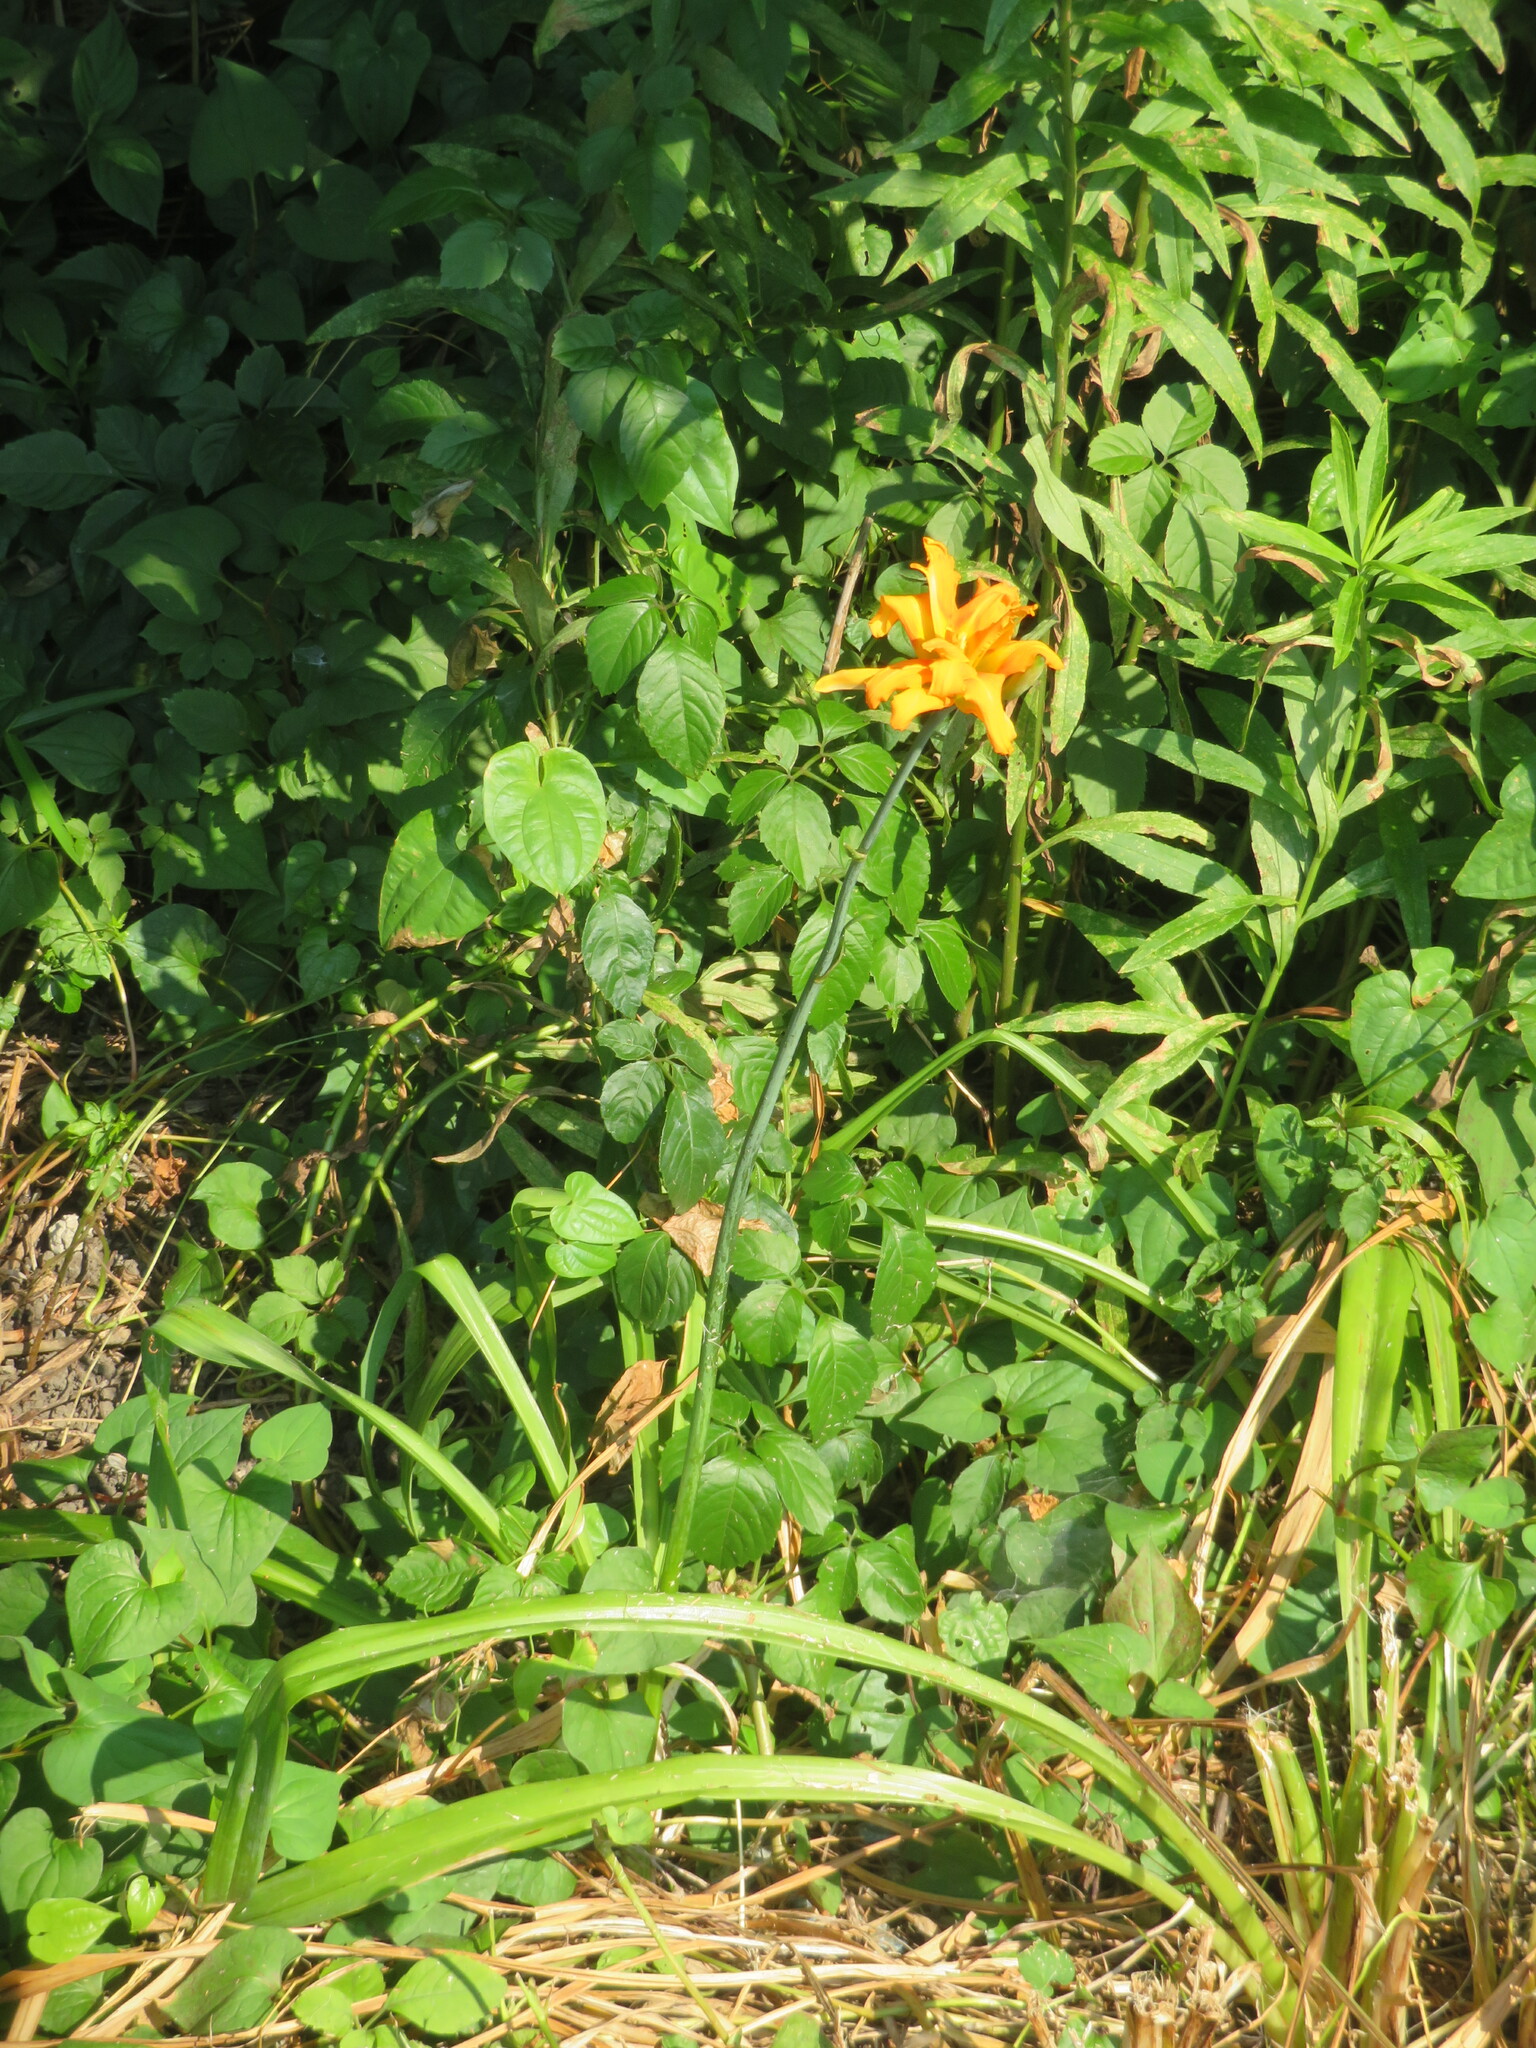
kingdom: Plantae
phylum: Tracheophyta
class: Liliopsida
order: Asparagales
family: Asphodelaceae
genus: Hemerocallis
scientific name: Hemerocallis fulva
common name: Orange day-lily
